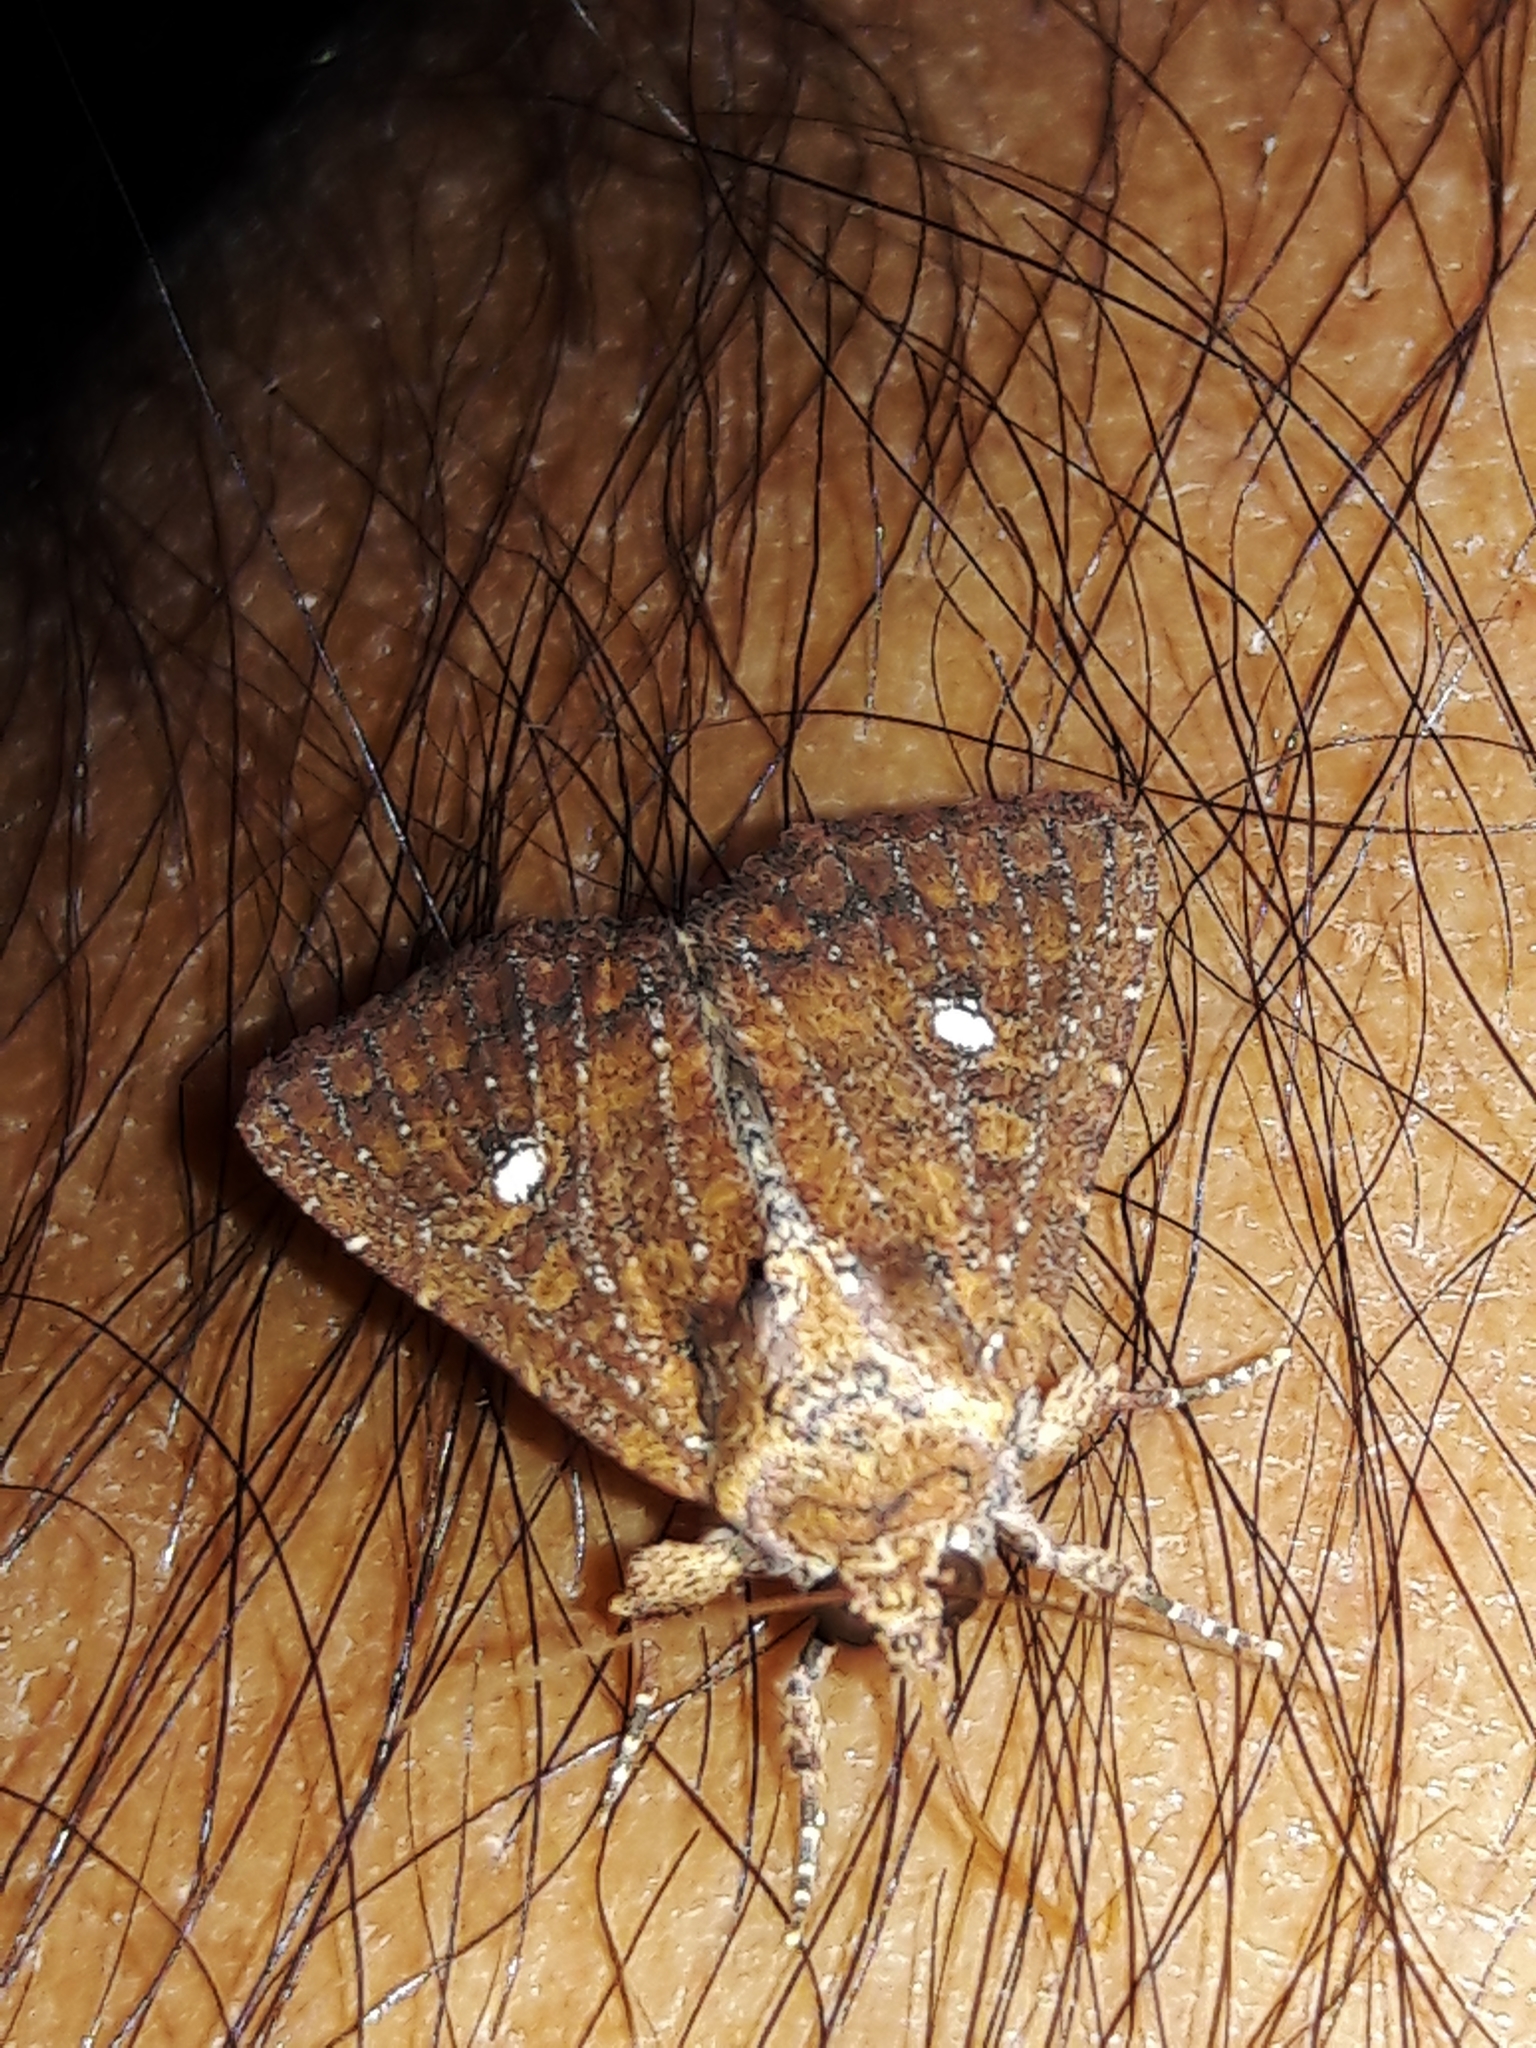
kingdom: Animalia
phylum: Arthropoda
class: Insecta
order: Lepidoptera
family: Noctuidae
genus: Condica
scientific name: Condica mobilis
